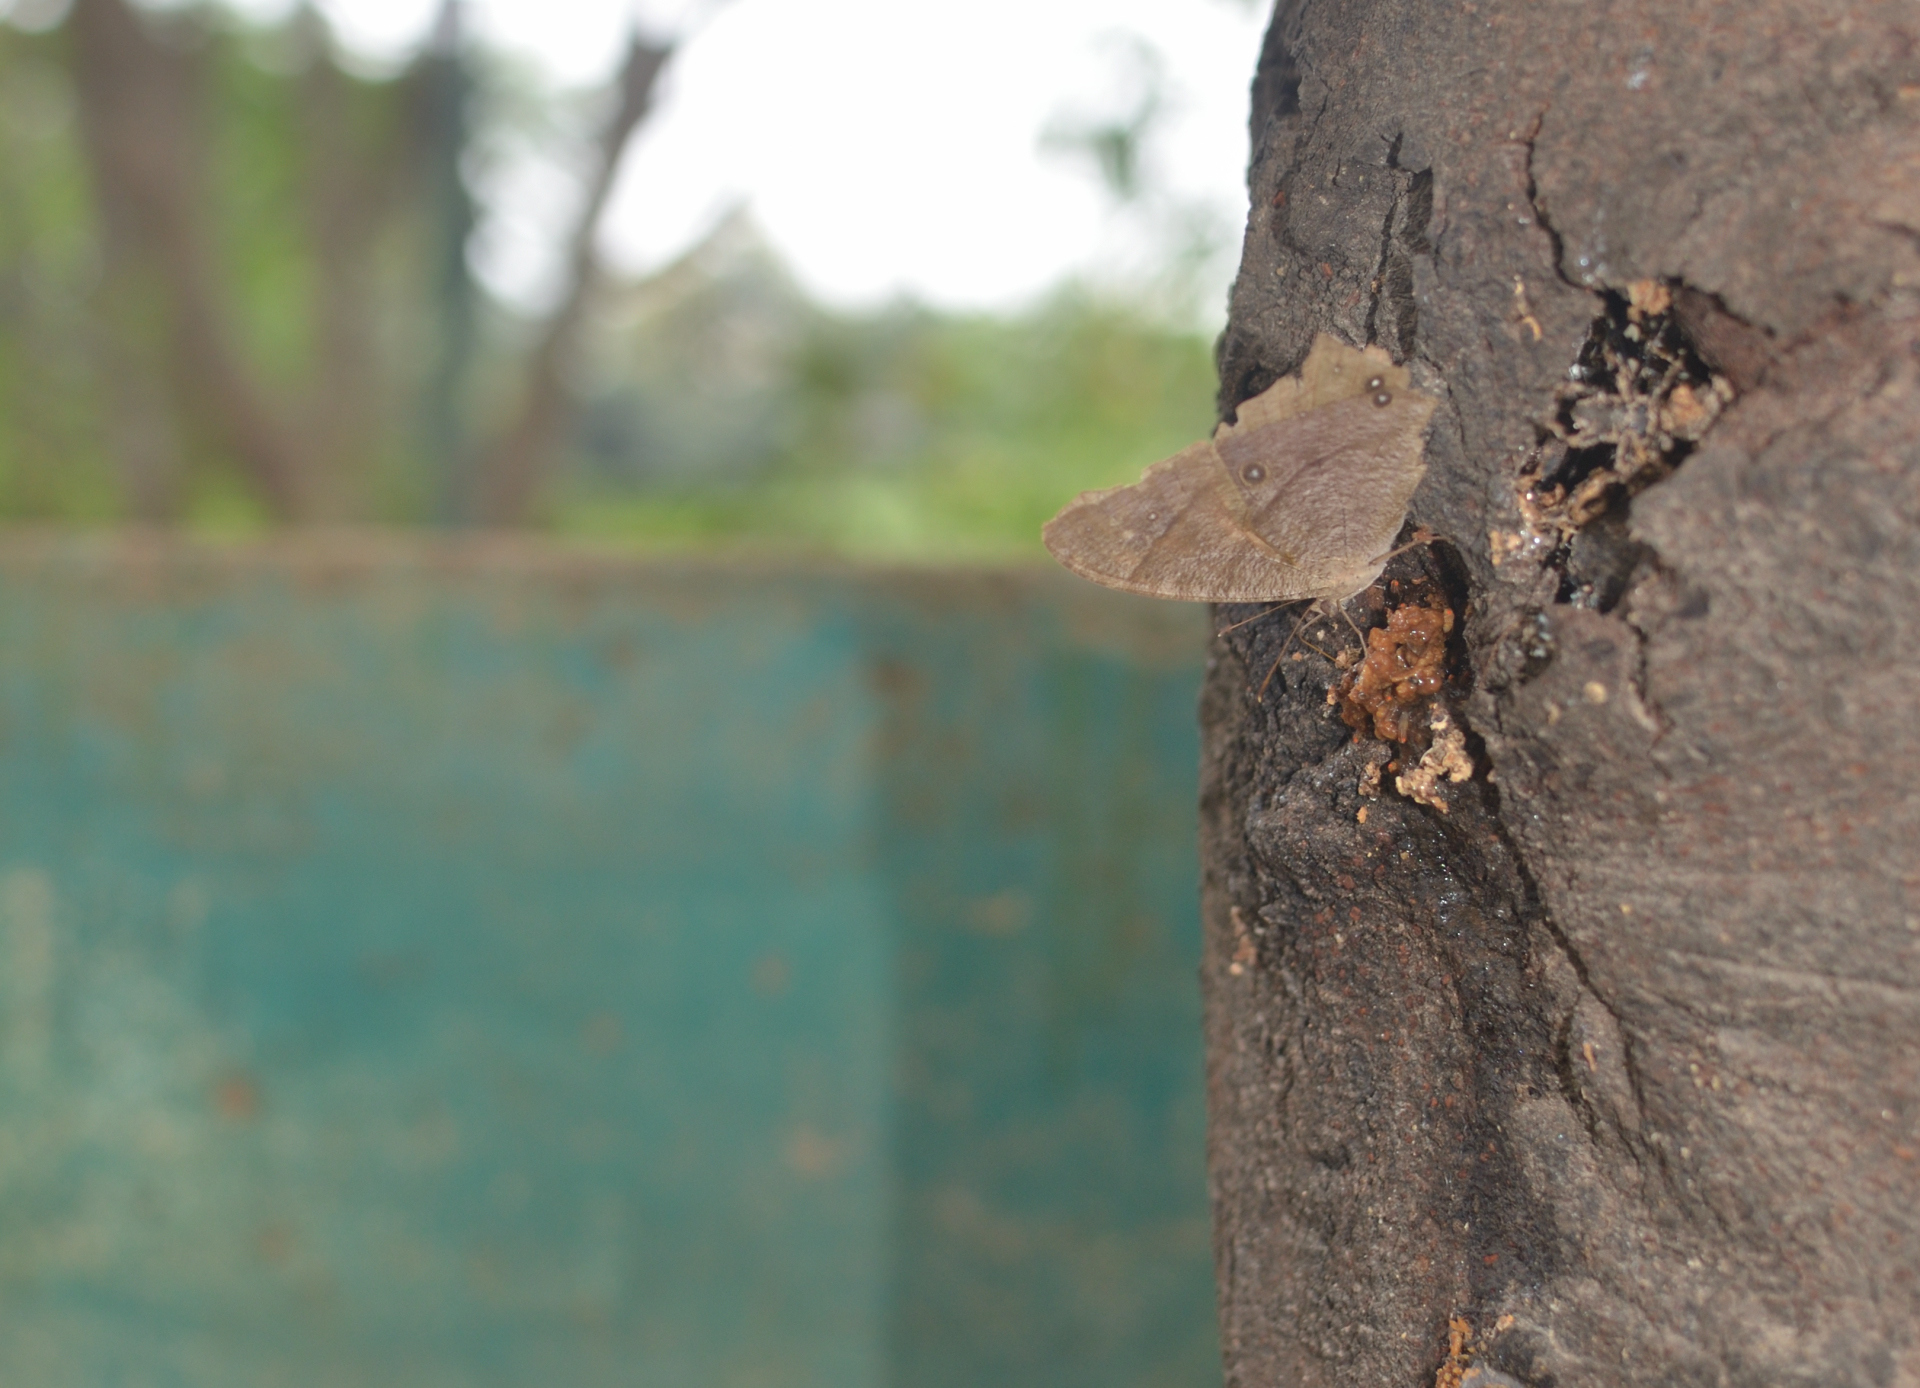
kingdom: Animalia
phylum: Arthropoda
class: Insecta
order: Lepidoptera
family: Nymphalidae
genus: Melanitis
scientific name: Melanitis leda
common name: Twilight brown
